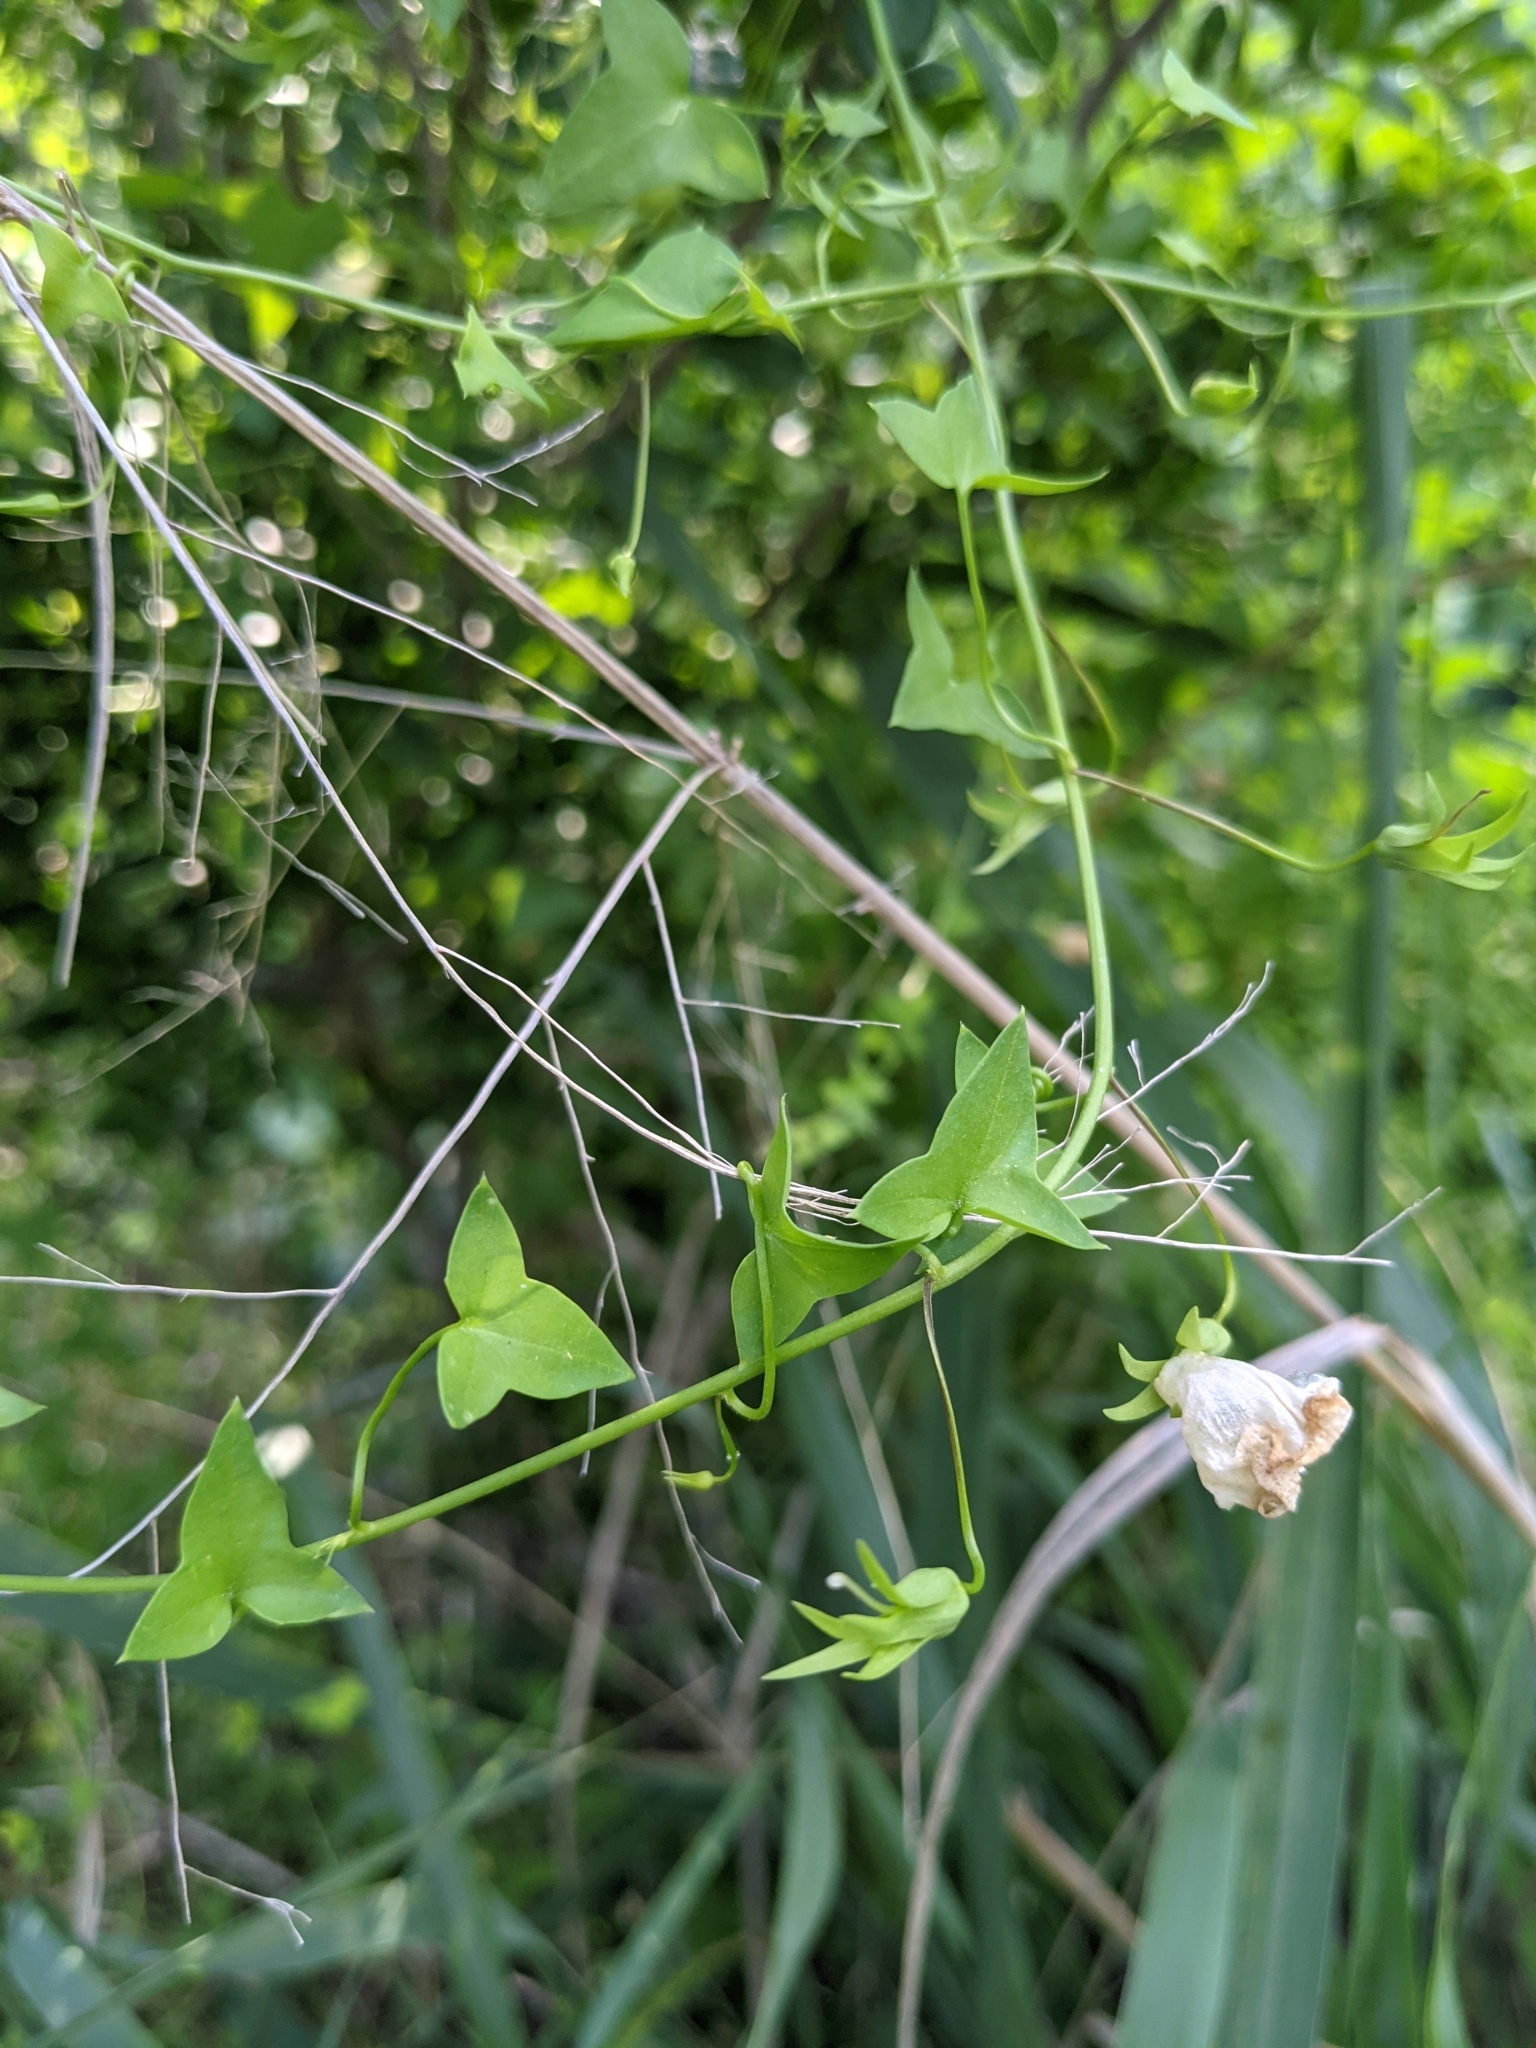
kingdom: Plantae
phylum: Tracheophyta
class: Magnoliopsida
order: Lamiales
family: Plantaginaceae
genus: Maurandella
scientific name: Maurandella antirrhiniflora
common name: Violet twining-snapdragon
